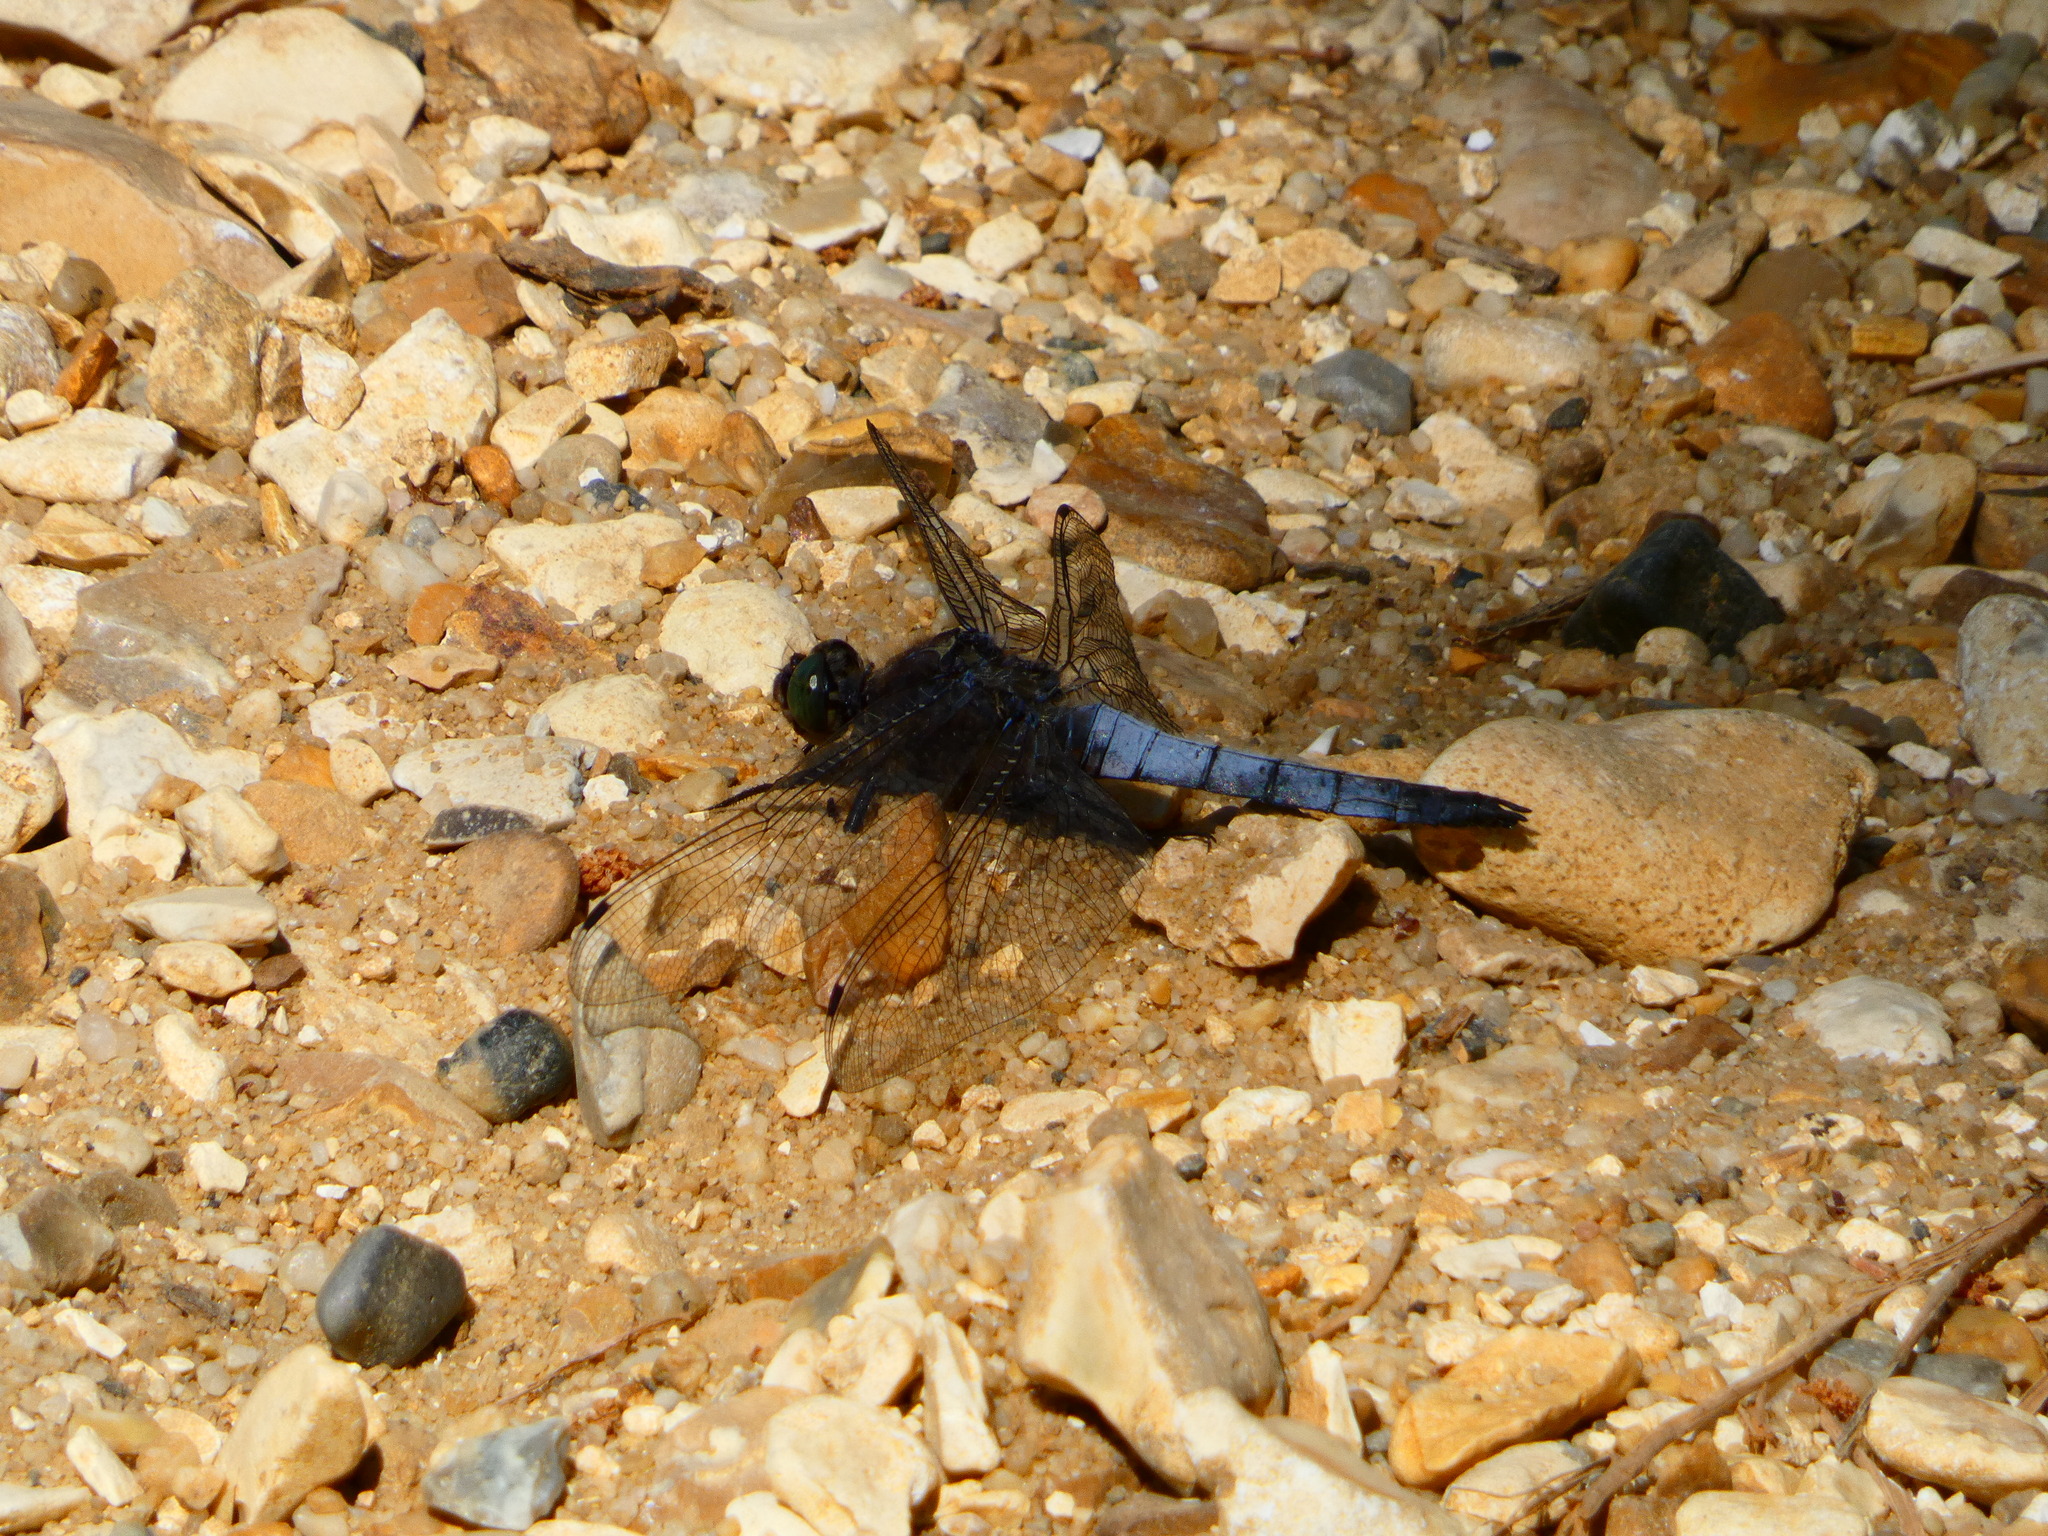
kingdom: Animalia
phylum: Arthropoda
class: Insecta
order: Odonata
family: Libellulidae
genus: Orthetrum
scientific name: Orthetrum cancellatum
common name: Black-tailed skimmer
